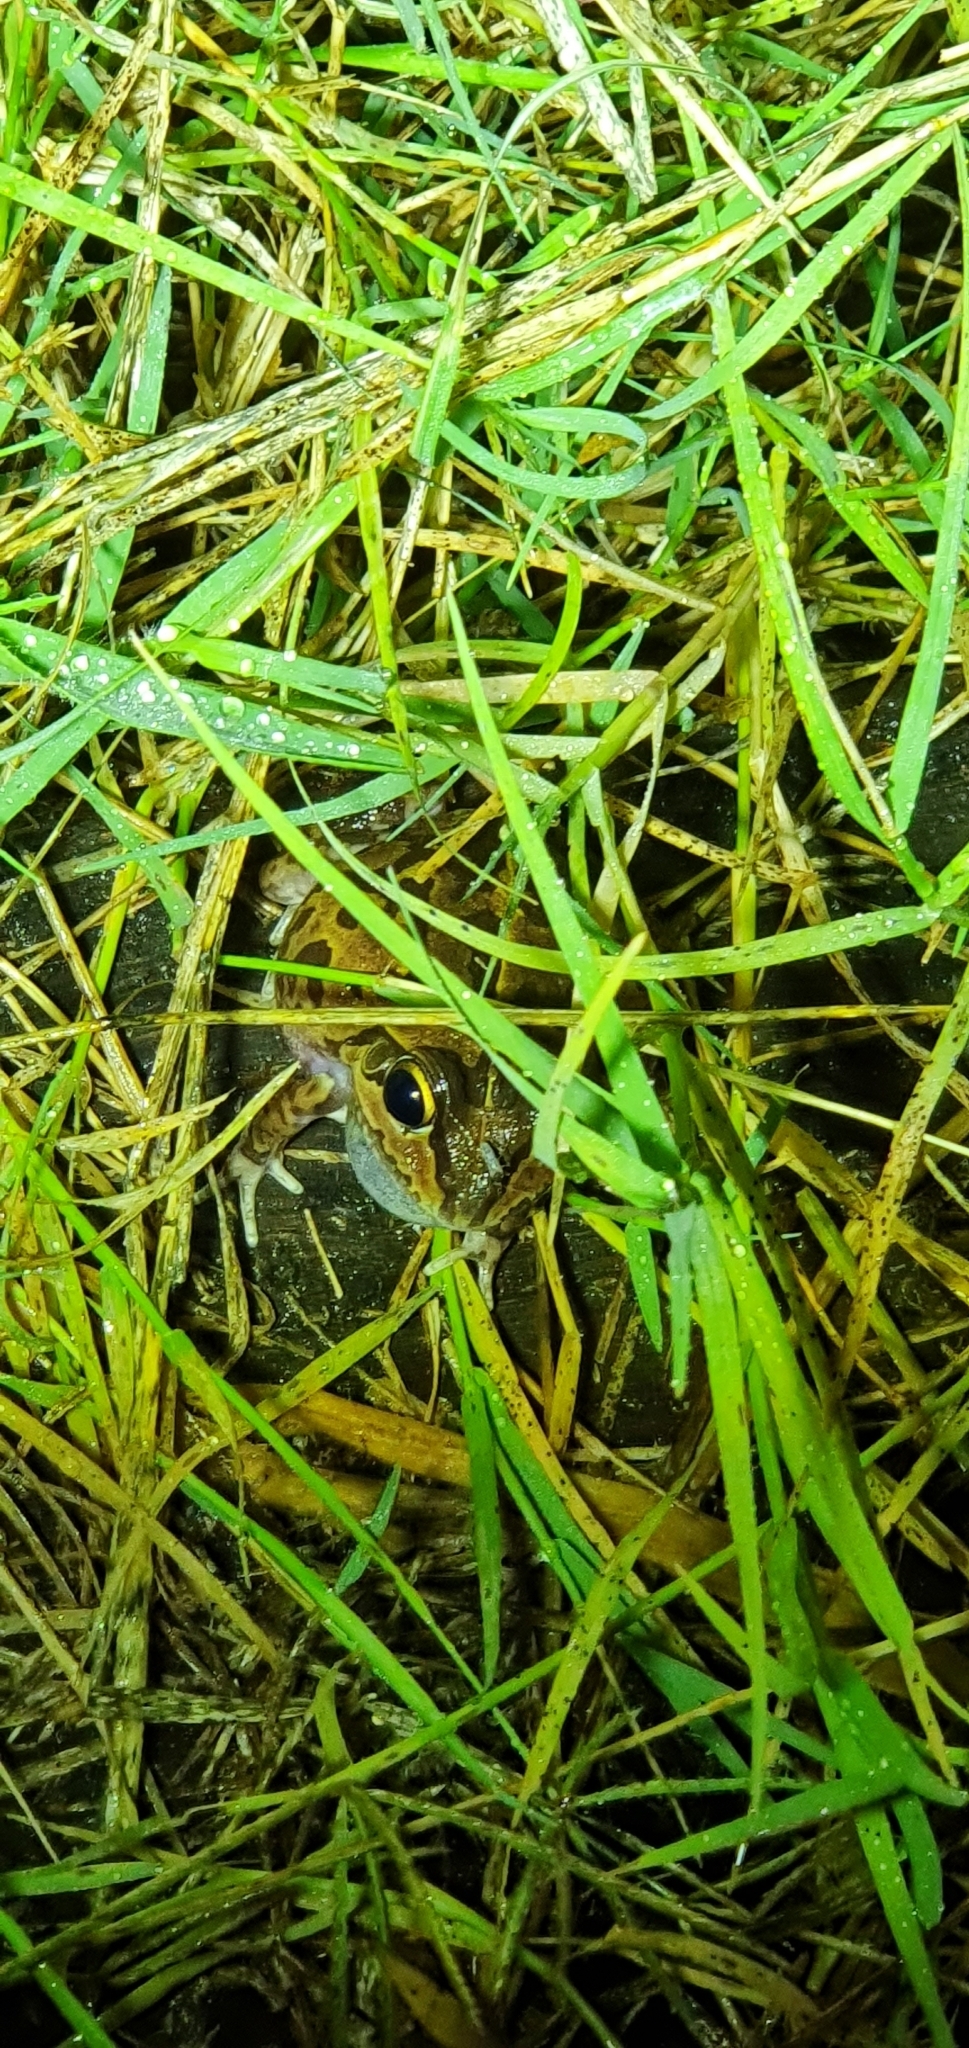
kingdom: Animalia
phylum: Chordata
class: Amphibia
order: Anura
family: Pelodryadidae
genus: Ranoidea
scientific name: Ranoidea brevipes
